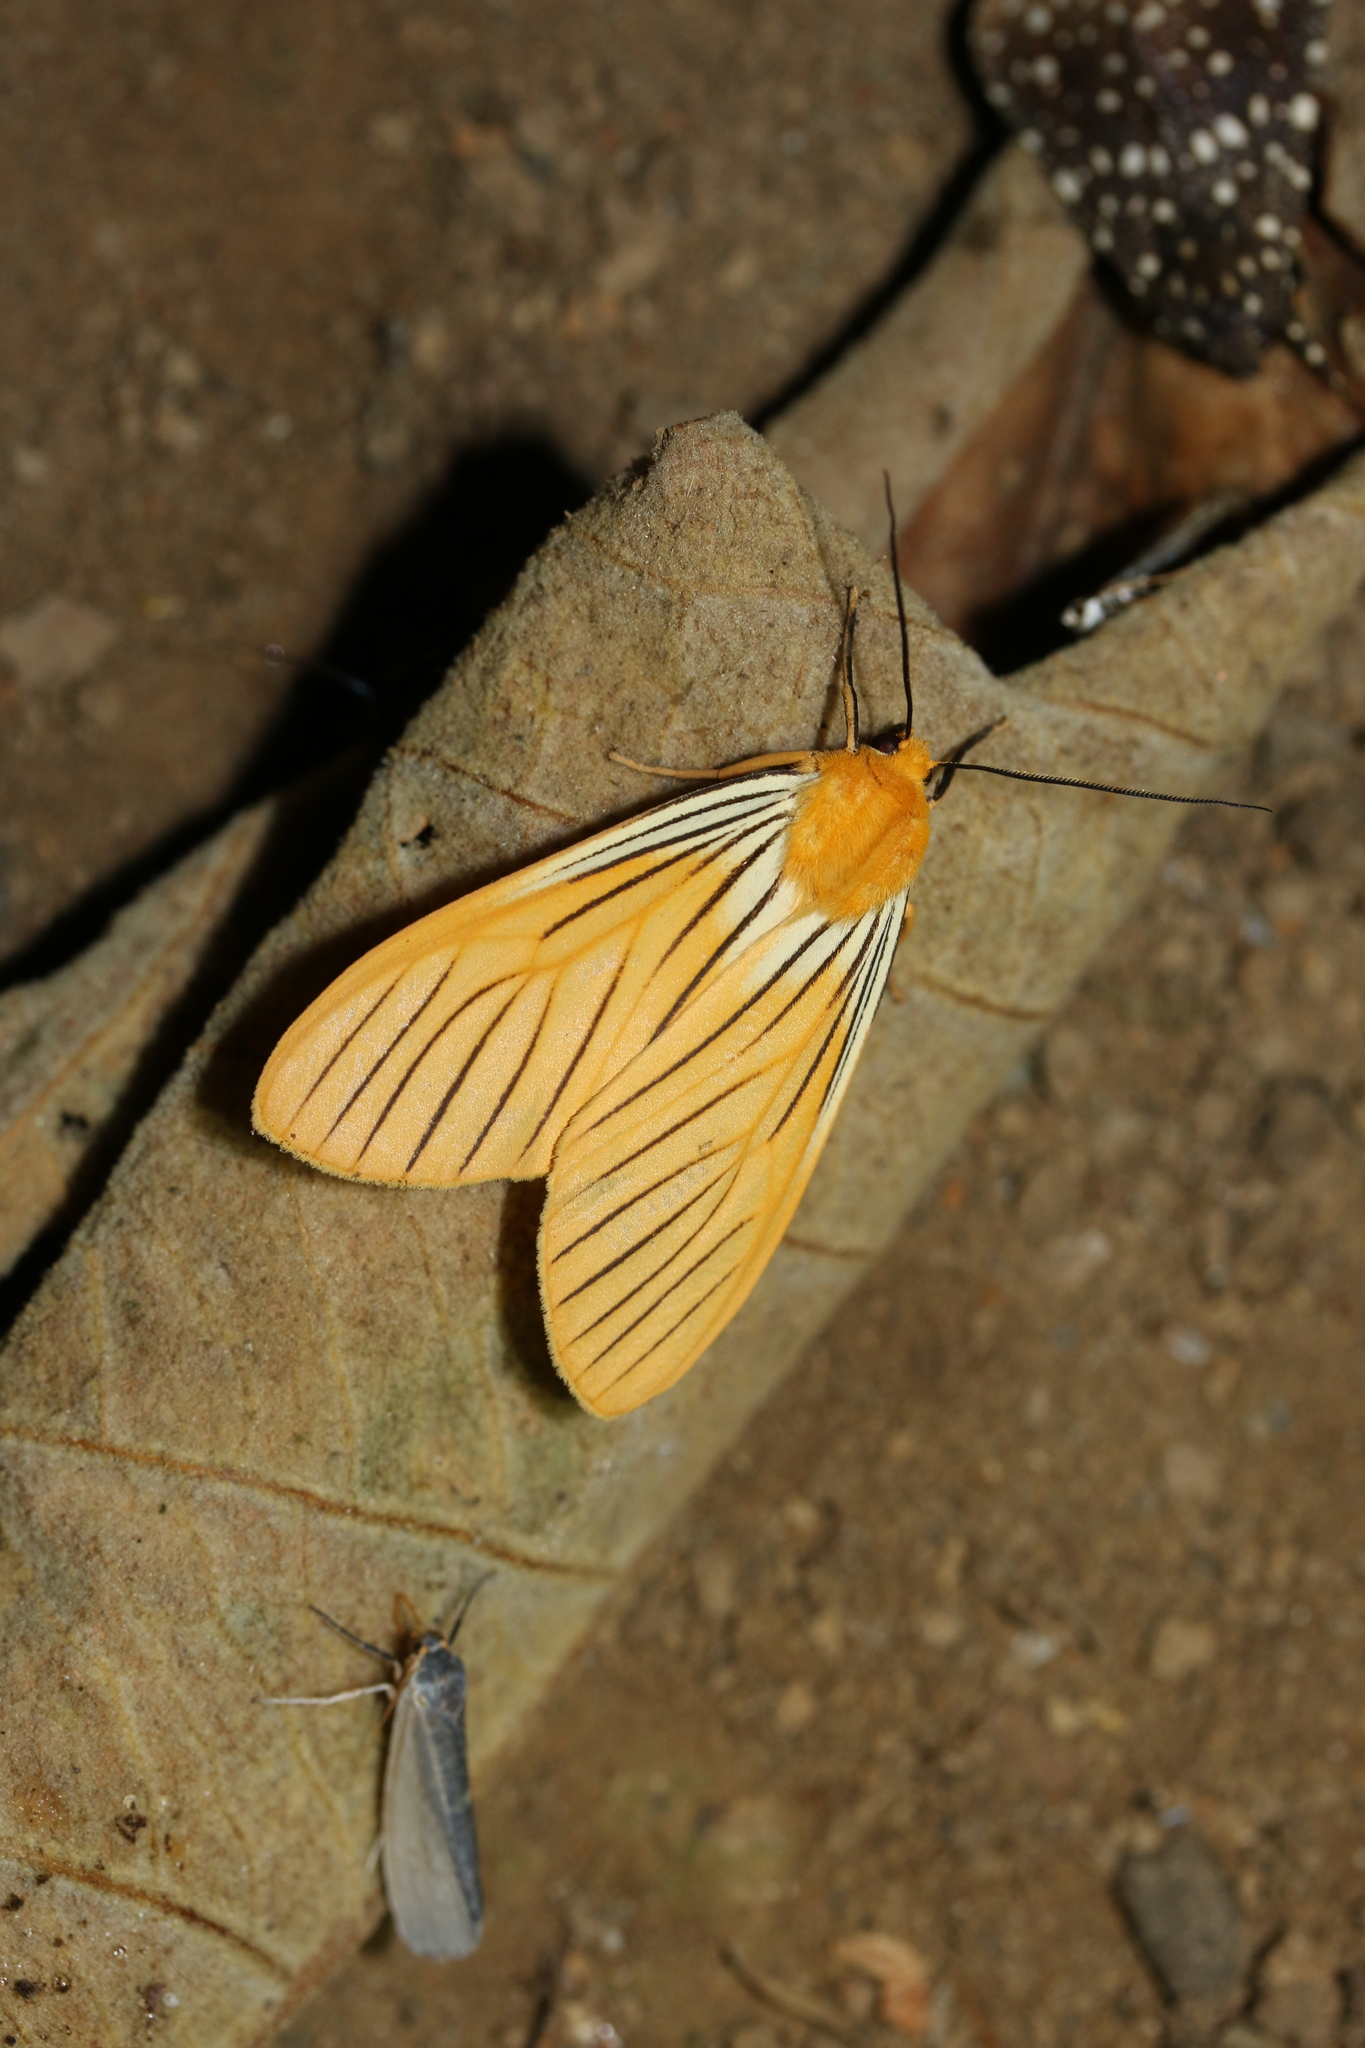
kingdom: Animalia
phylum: Arthropoda
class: Insecta
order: Lepidoptera
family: Erebidae
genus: Pseudischnocampa
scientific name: Pseudischnocampa
